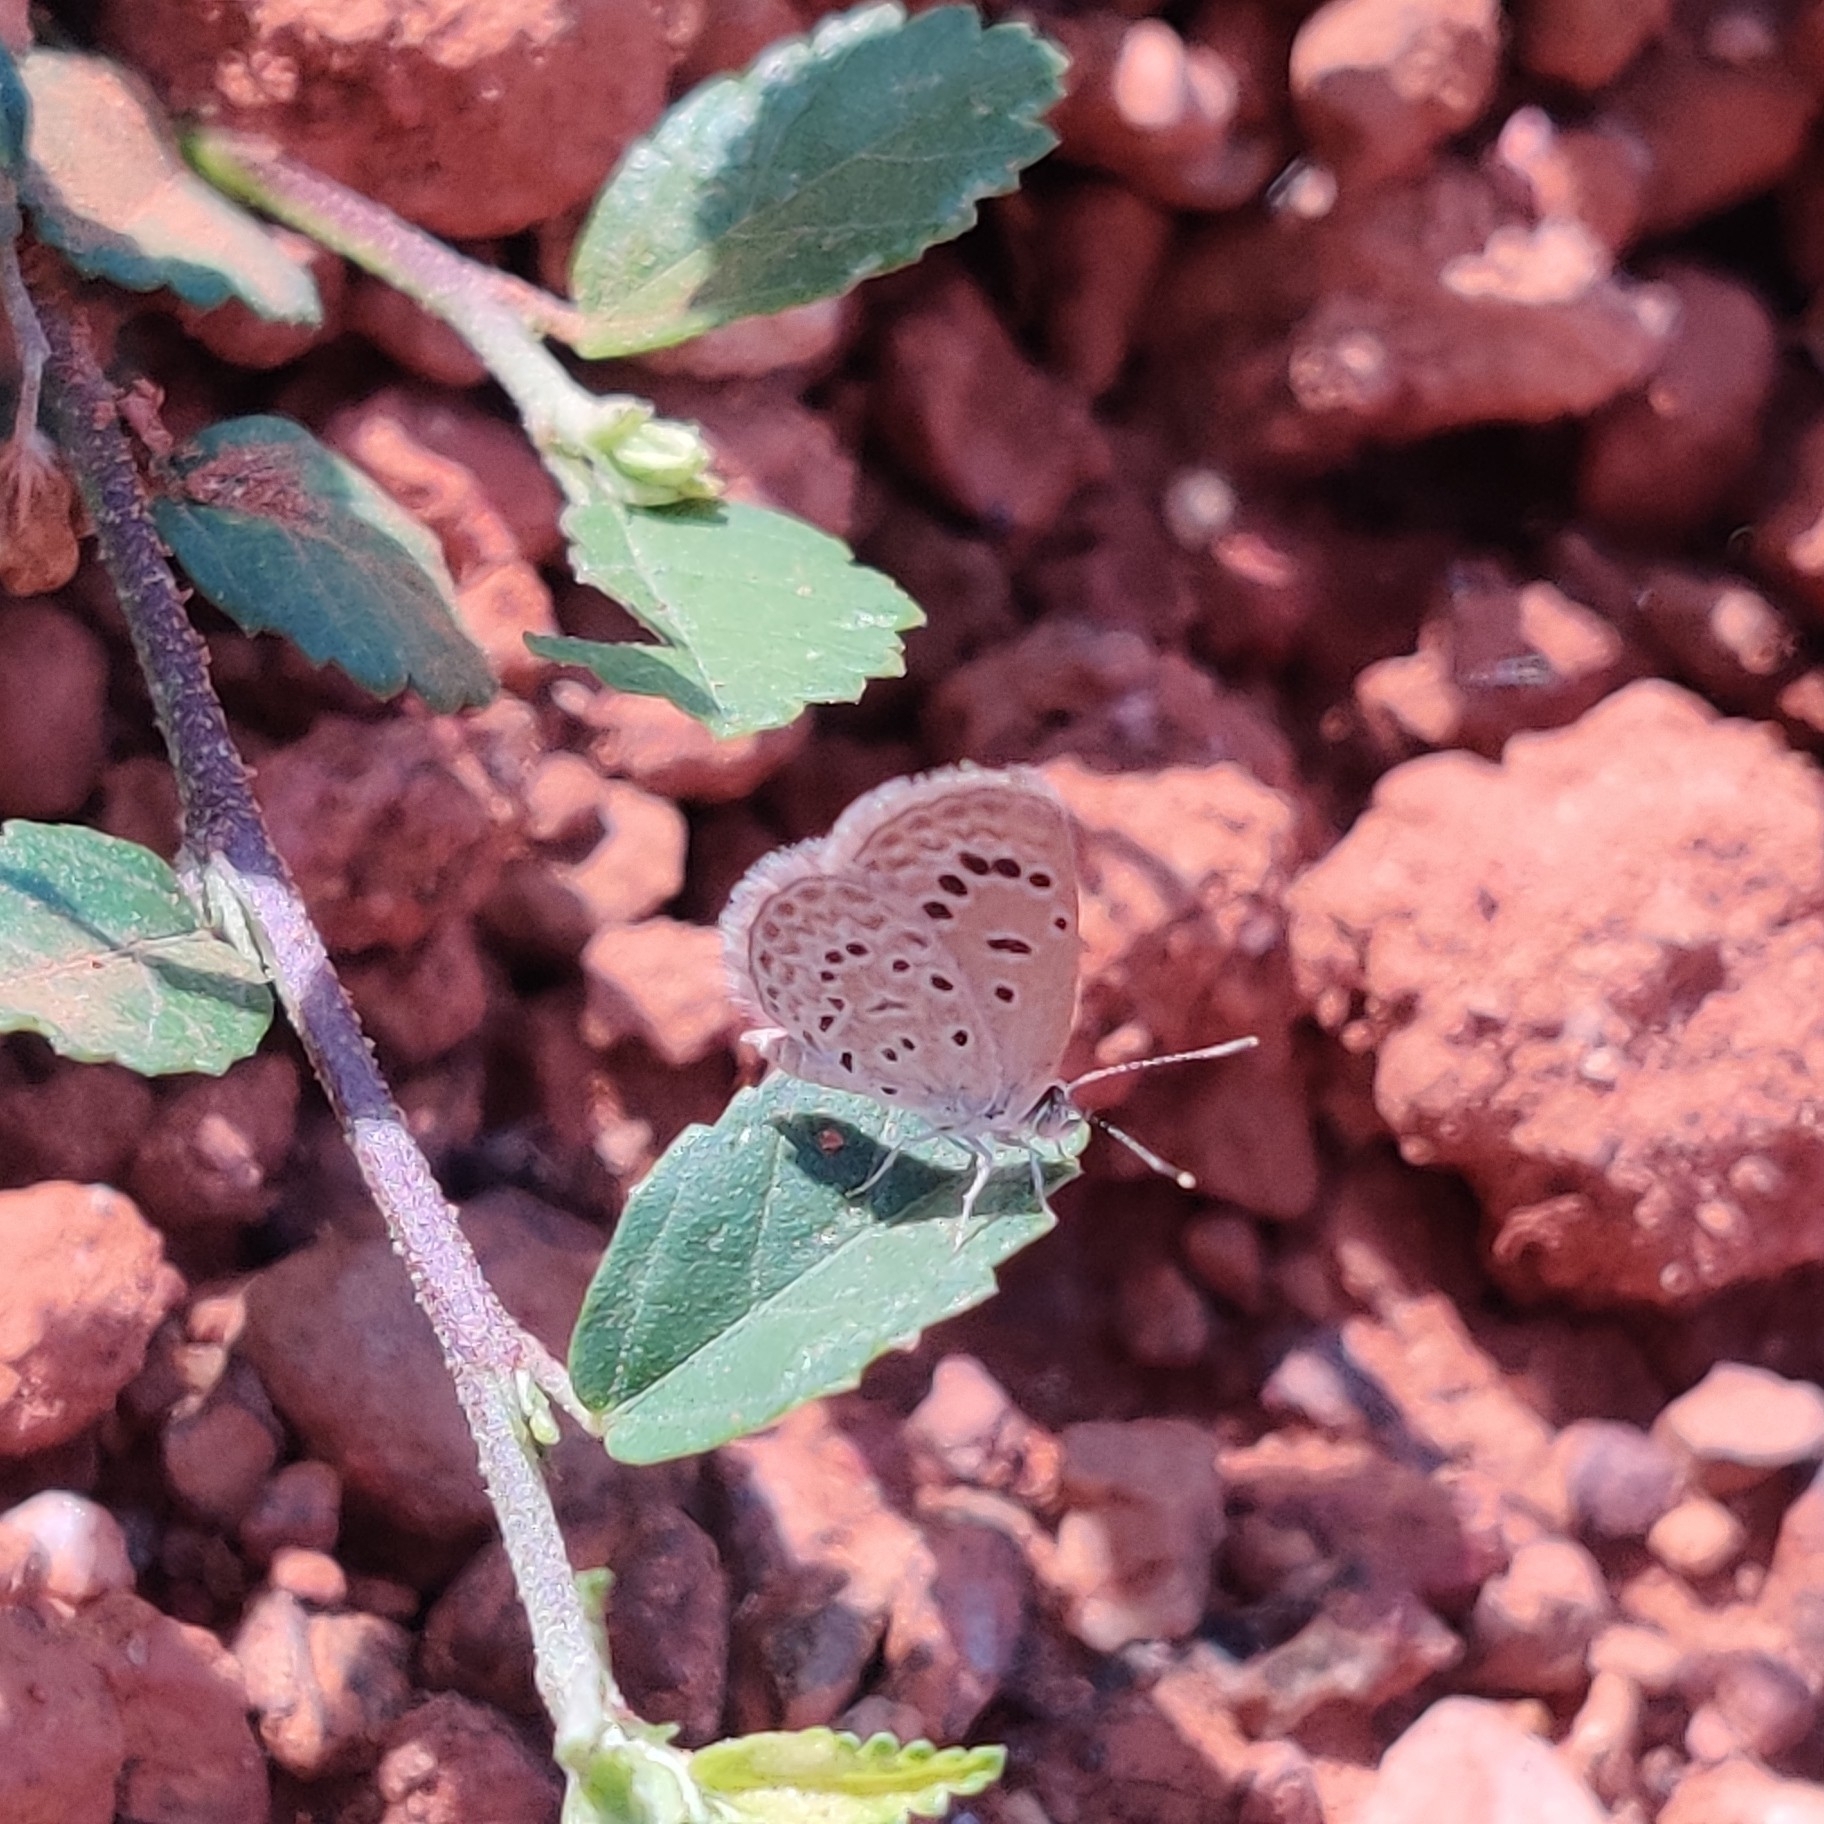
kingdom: Animalia
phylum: Arthropoda
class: Insecta
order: Lepidoptera
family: Lycaenidae
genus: Zizeeria
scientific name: Zizeeria karsandra
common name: Dark grass blue
